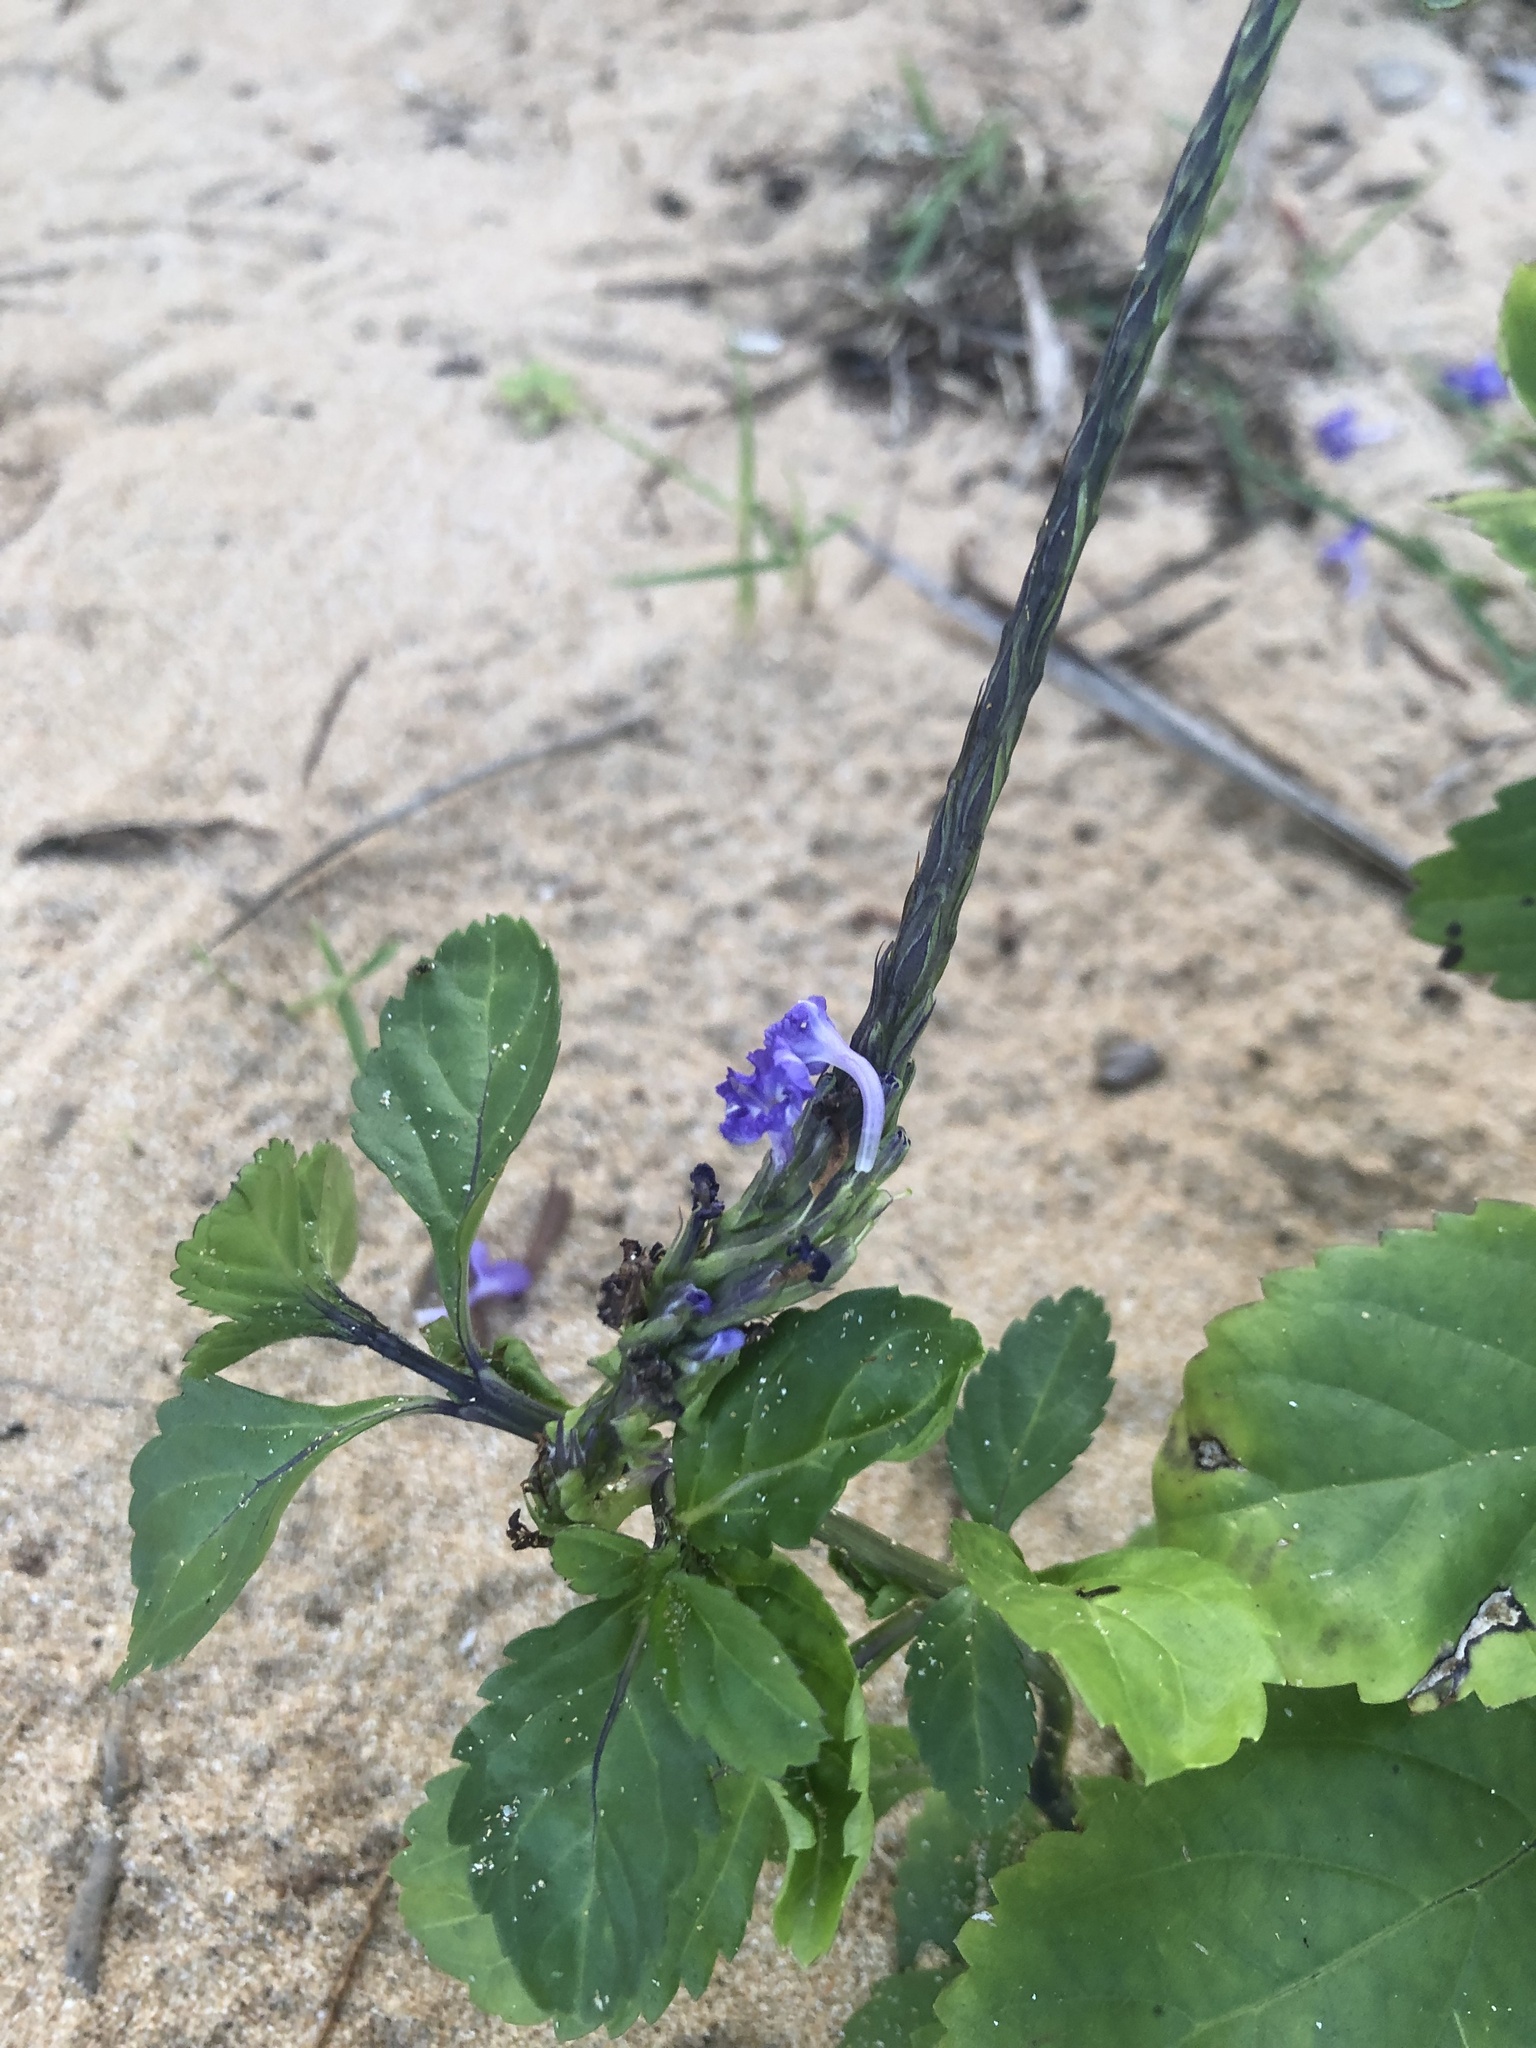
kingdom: Plantae
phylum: Tracheophyta
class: Magnoliopsida
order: Lamiales
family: Verbenaceae
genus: Stachytarpheta
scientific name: Stachytarpheta jamaicensis
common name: Light-blue snakeweed
